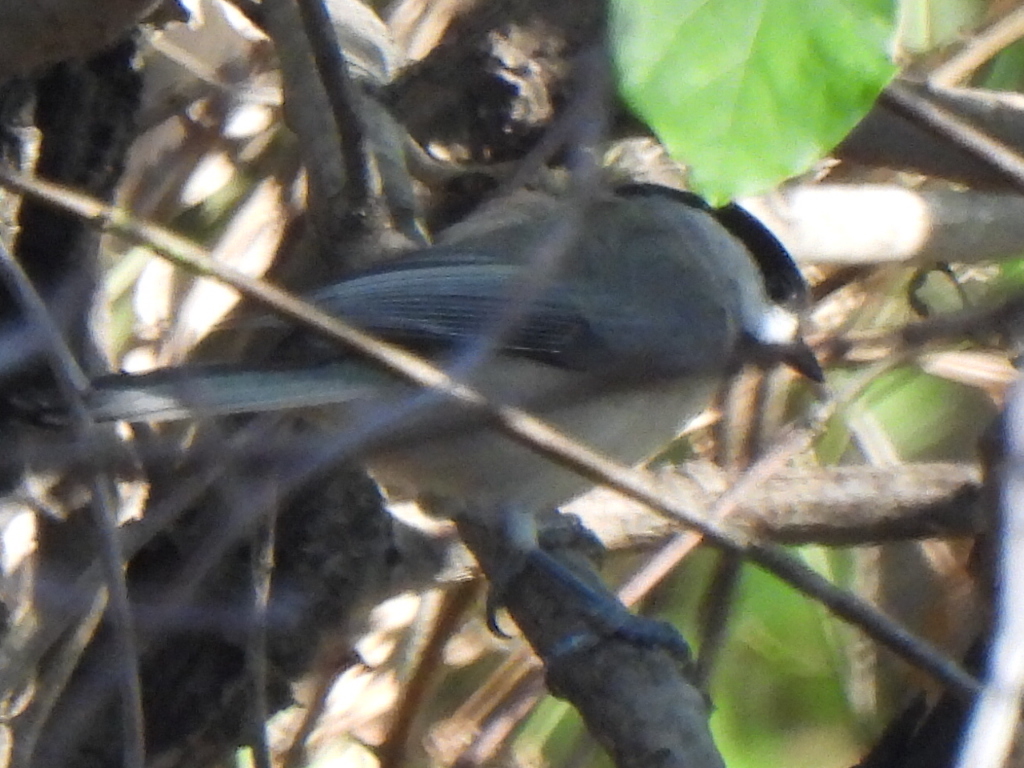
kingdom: Animalia
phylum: Chordata
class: Aves
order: Passeriformes
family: Paridae
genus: Poecile
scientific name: Poecile carolinensis
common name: Carolina chickadee
